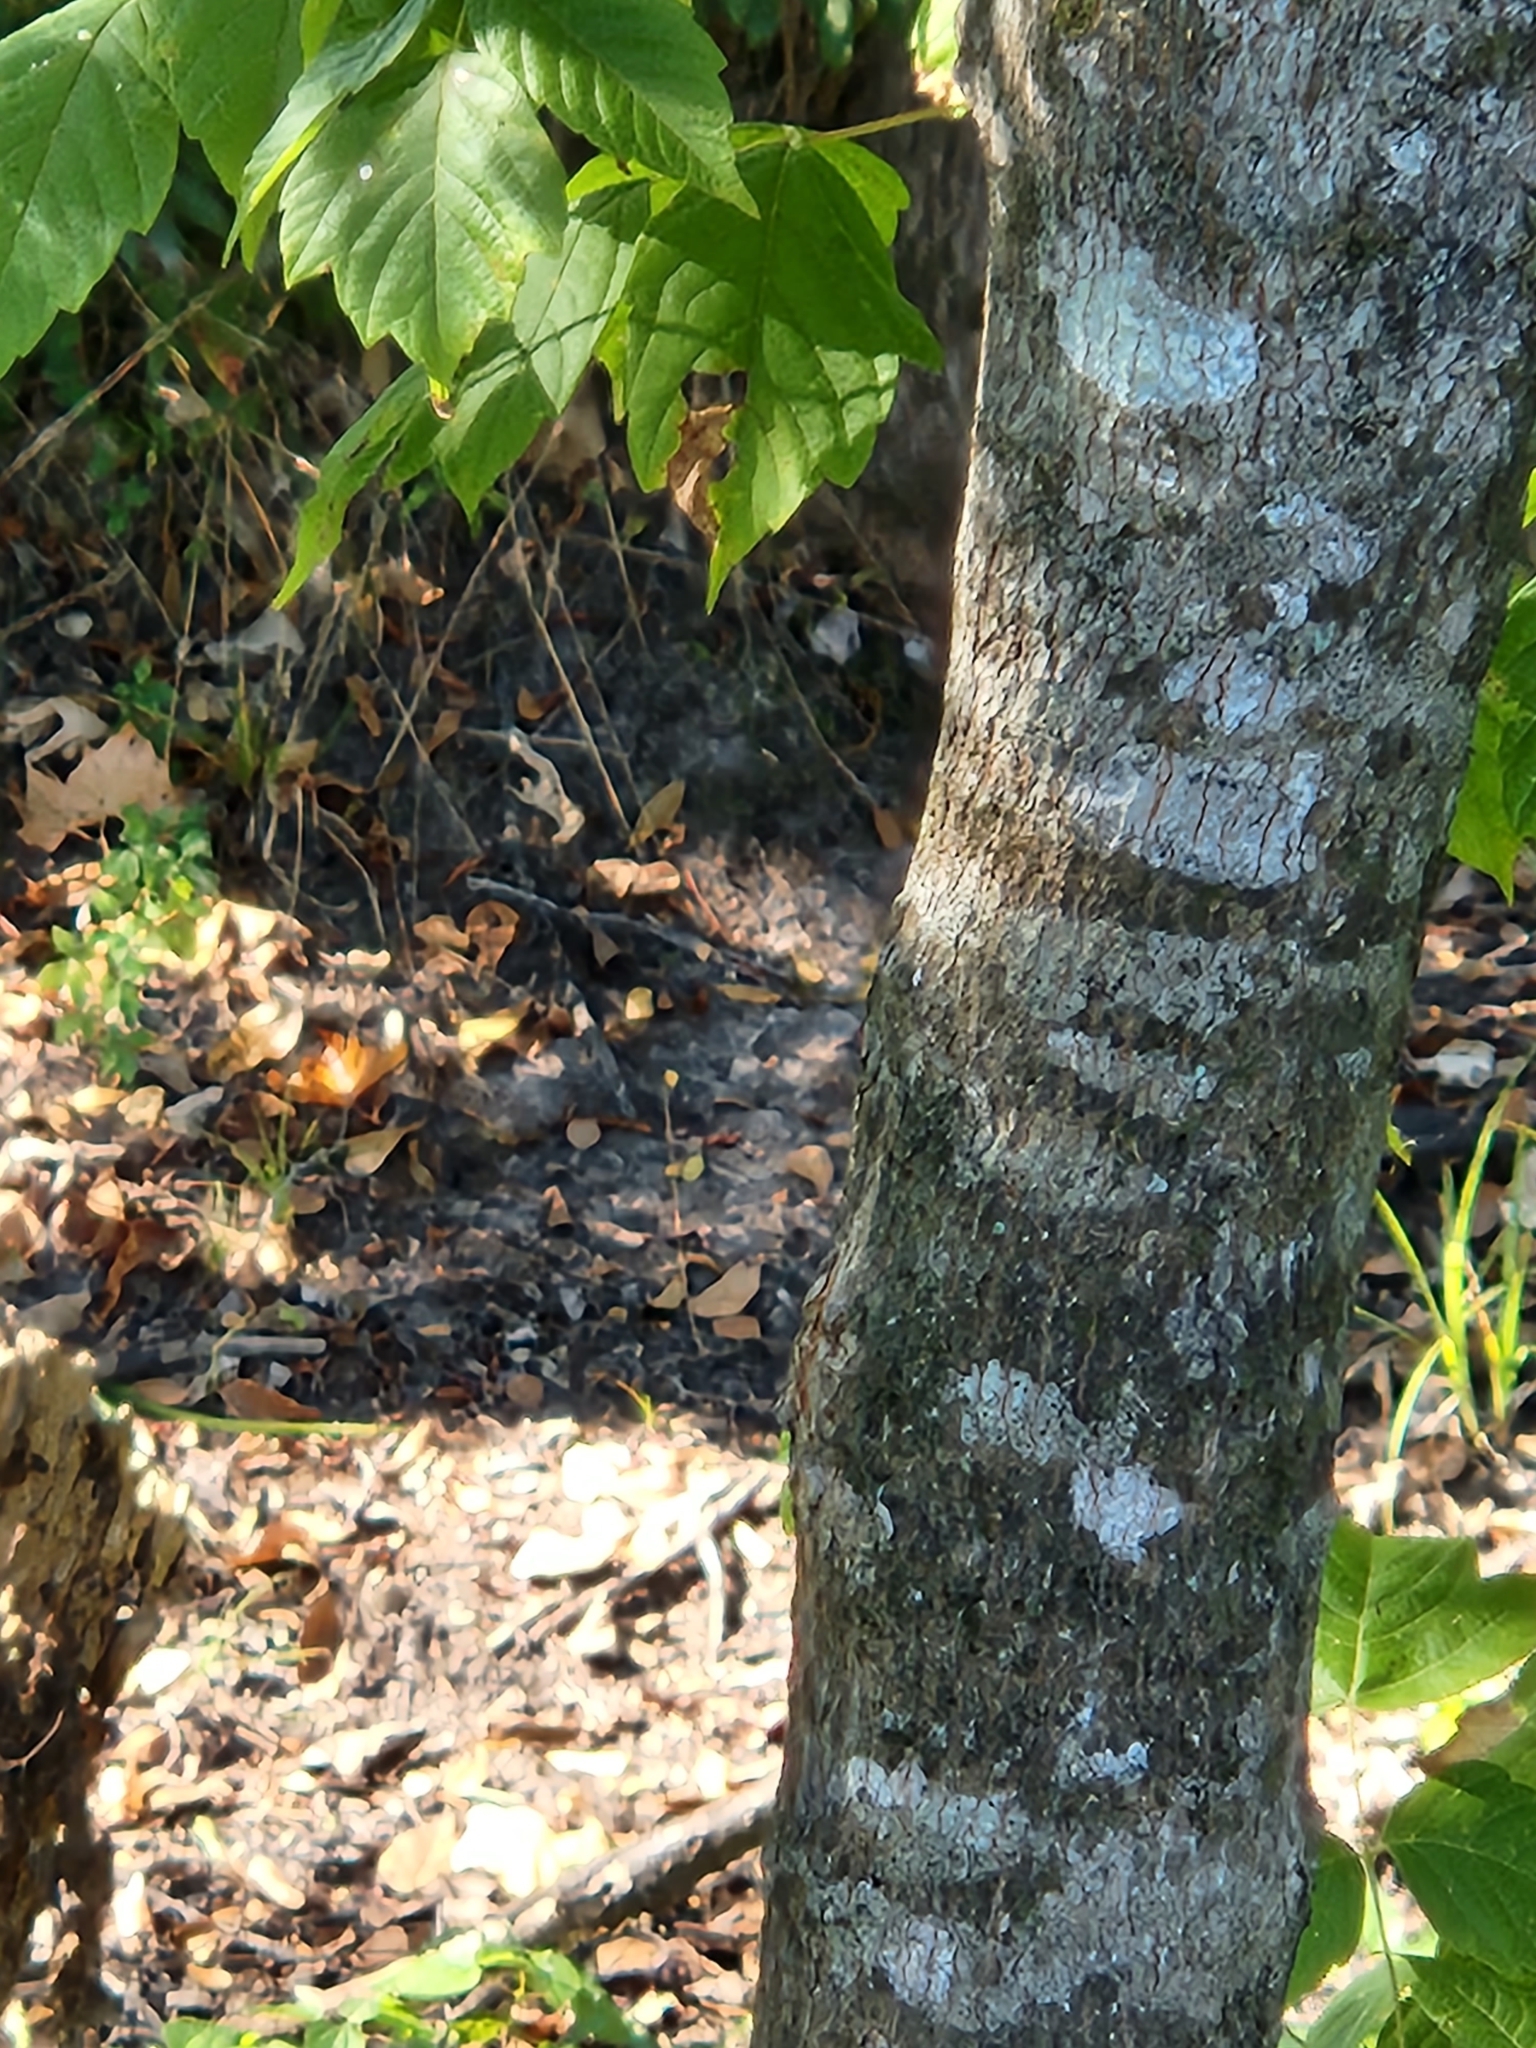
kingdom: Plantae
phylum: Tracheophyta
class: Magnoliopsida
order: Sapindales
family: Sapindaceae
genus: Acer
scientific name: Acer negundo
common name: Ashleaf maple
